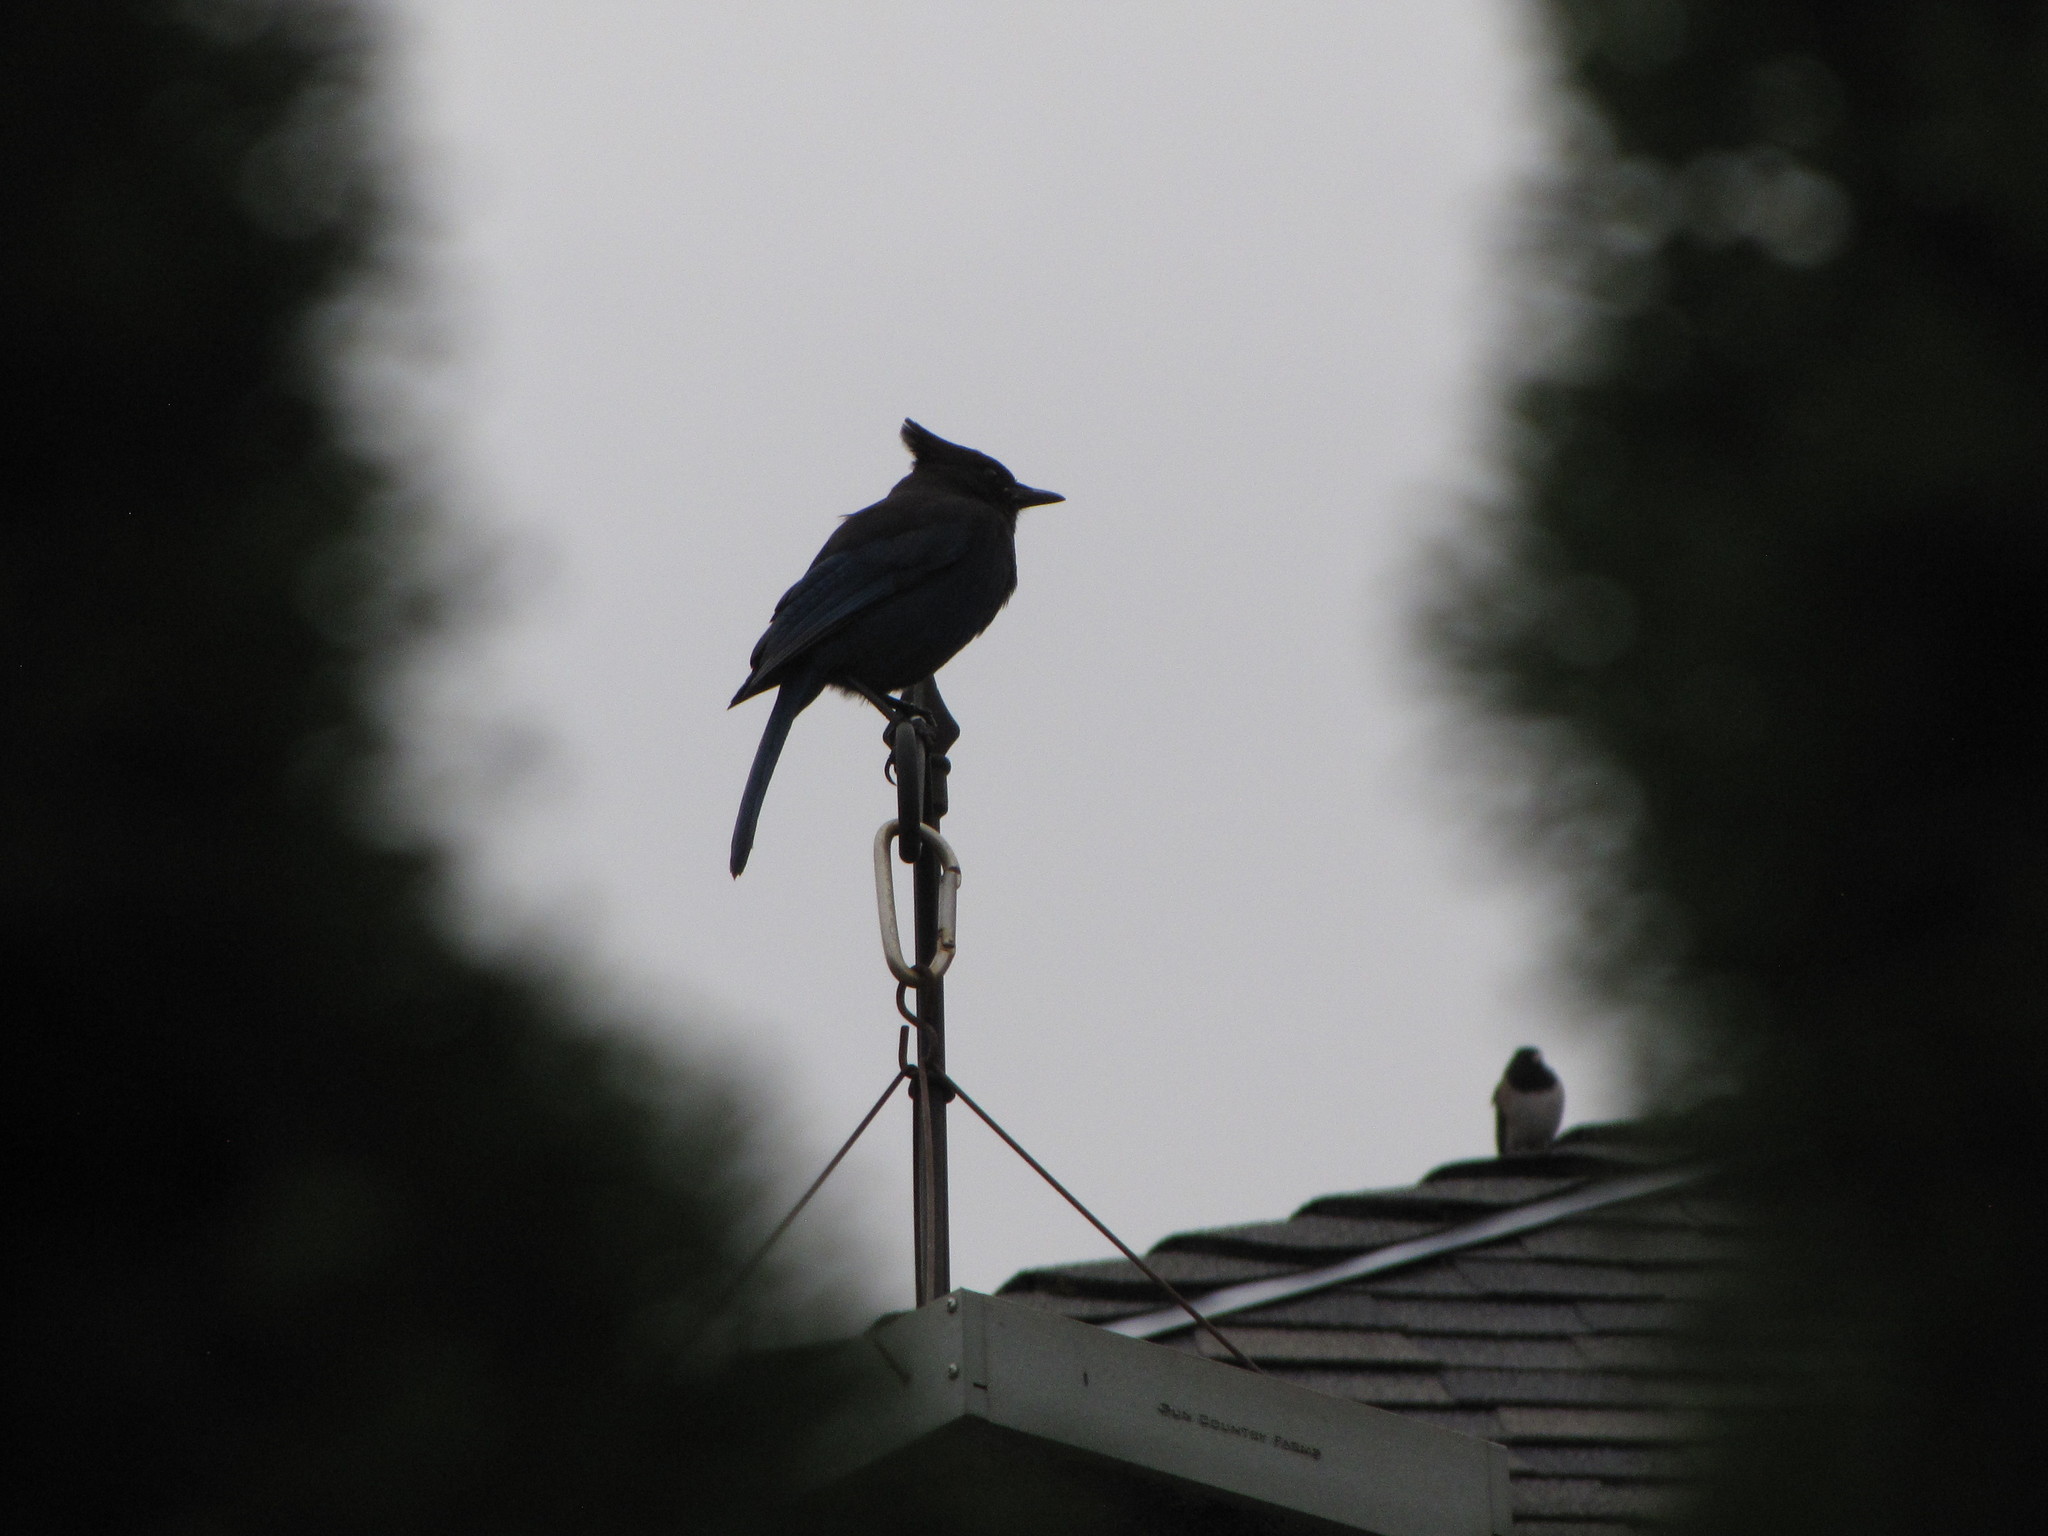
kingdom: Animalia
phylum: Chordata
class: Aves
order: Passeriformes
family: Corvidae
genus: Cyanocitta
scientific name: Cyanocitta stelleri
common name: Steller's jay
